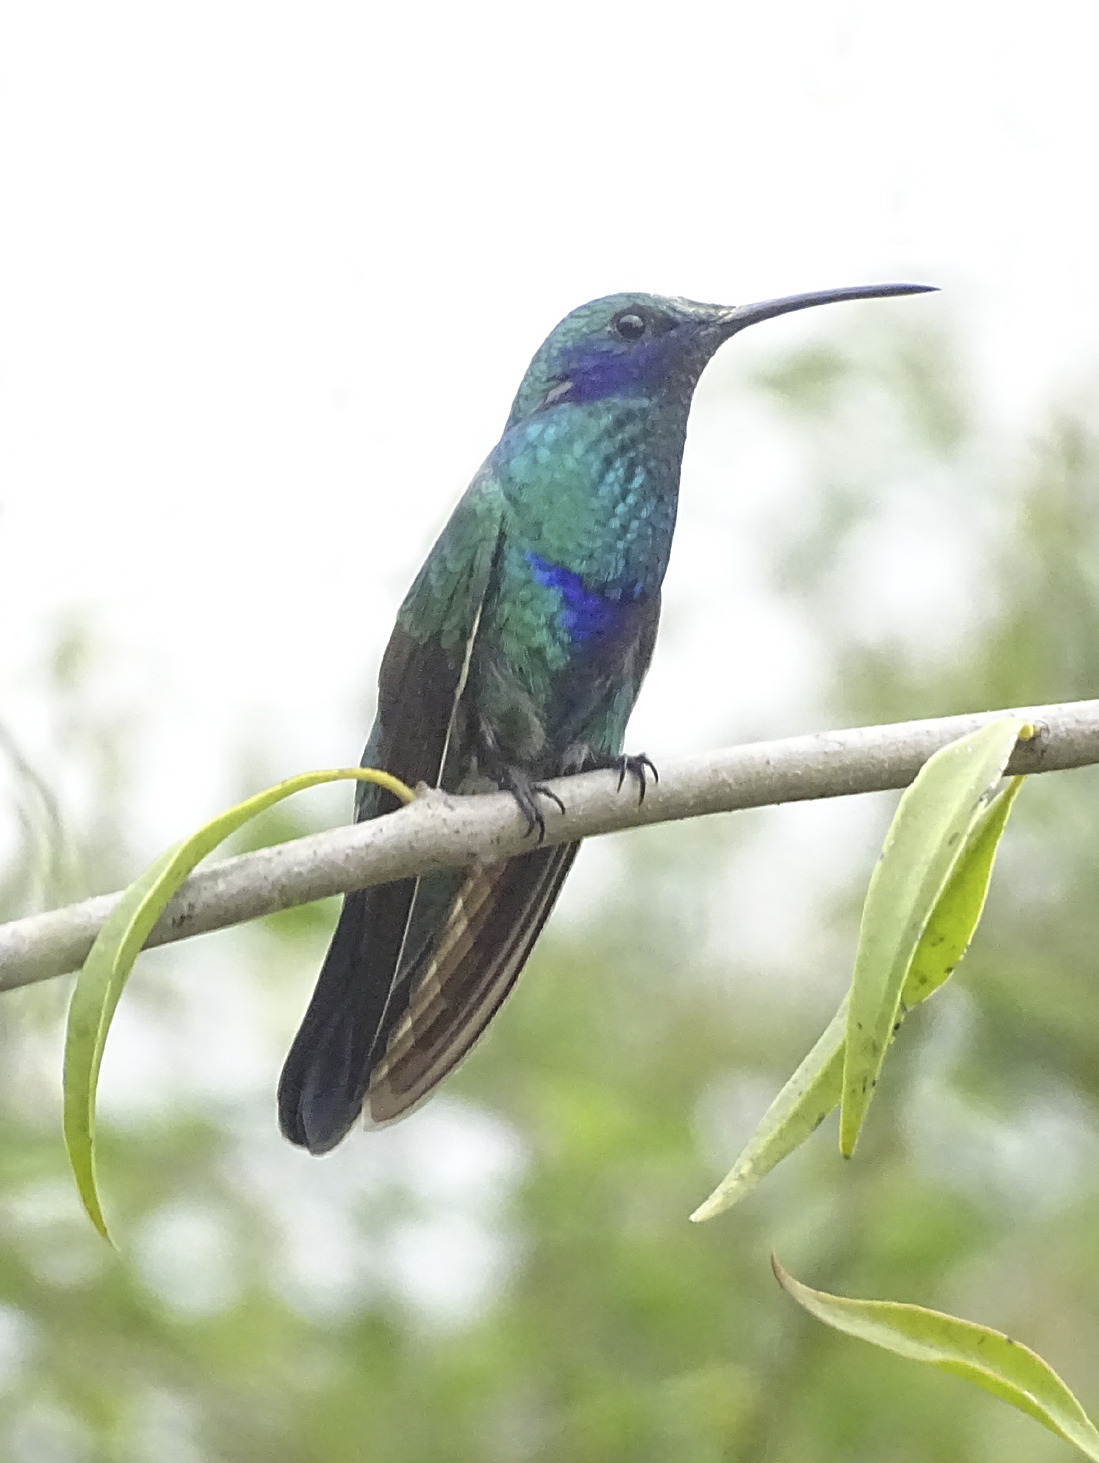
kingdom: Animalia
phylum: Chordata
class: Aves
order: Apodiformes
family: Trochilidae
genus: Colibri
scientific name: Colibri coruscans
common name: Sparkling violetear
